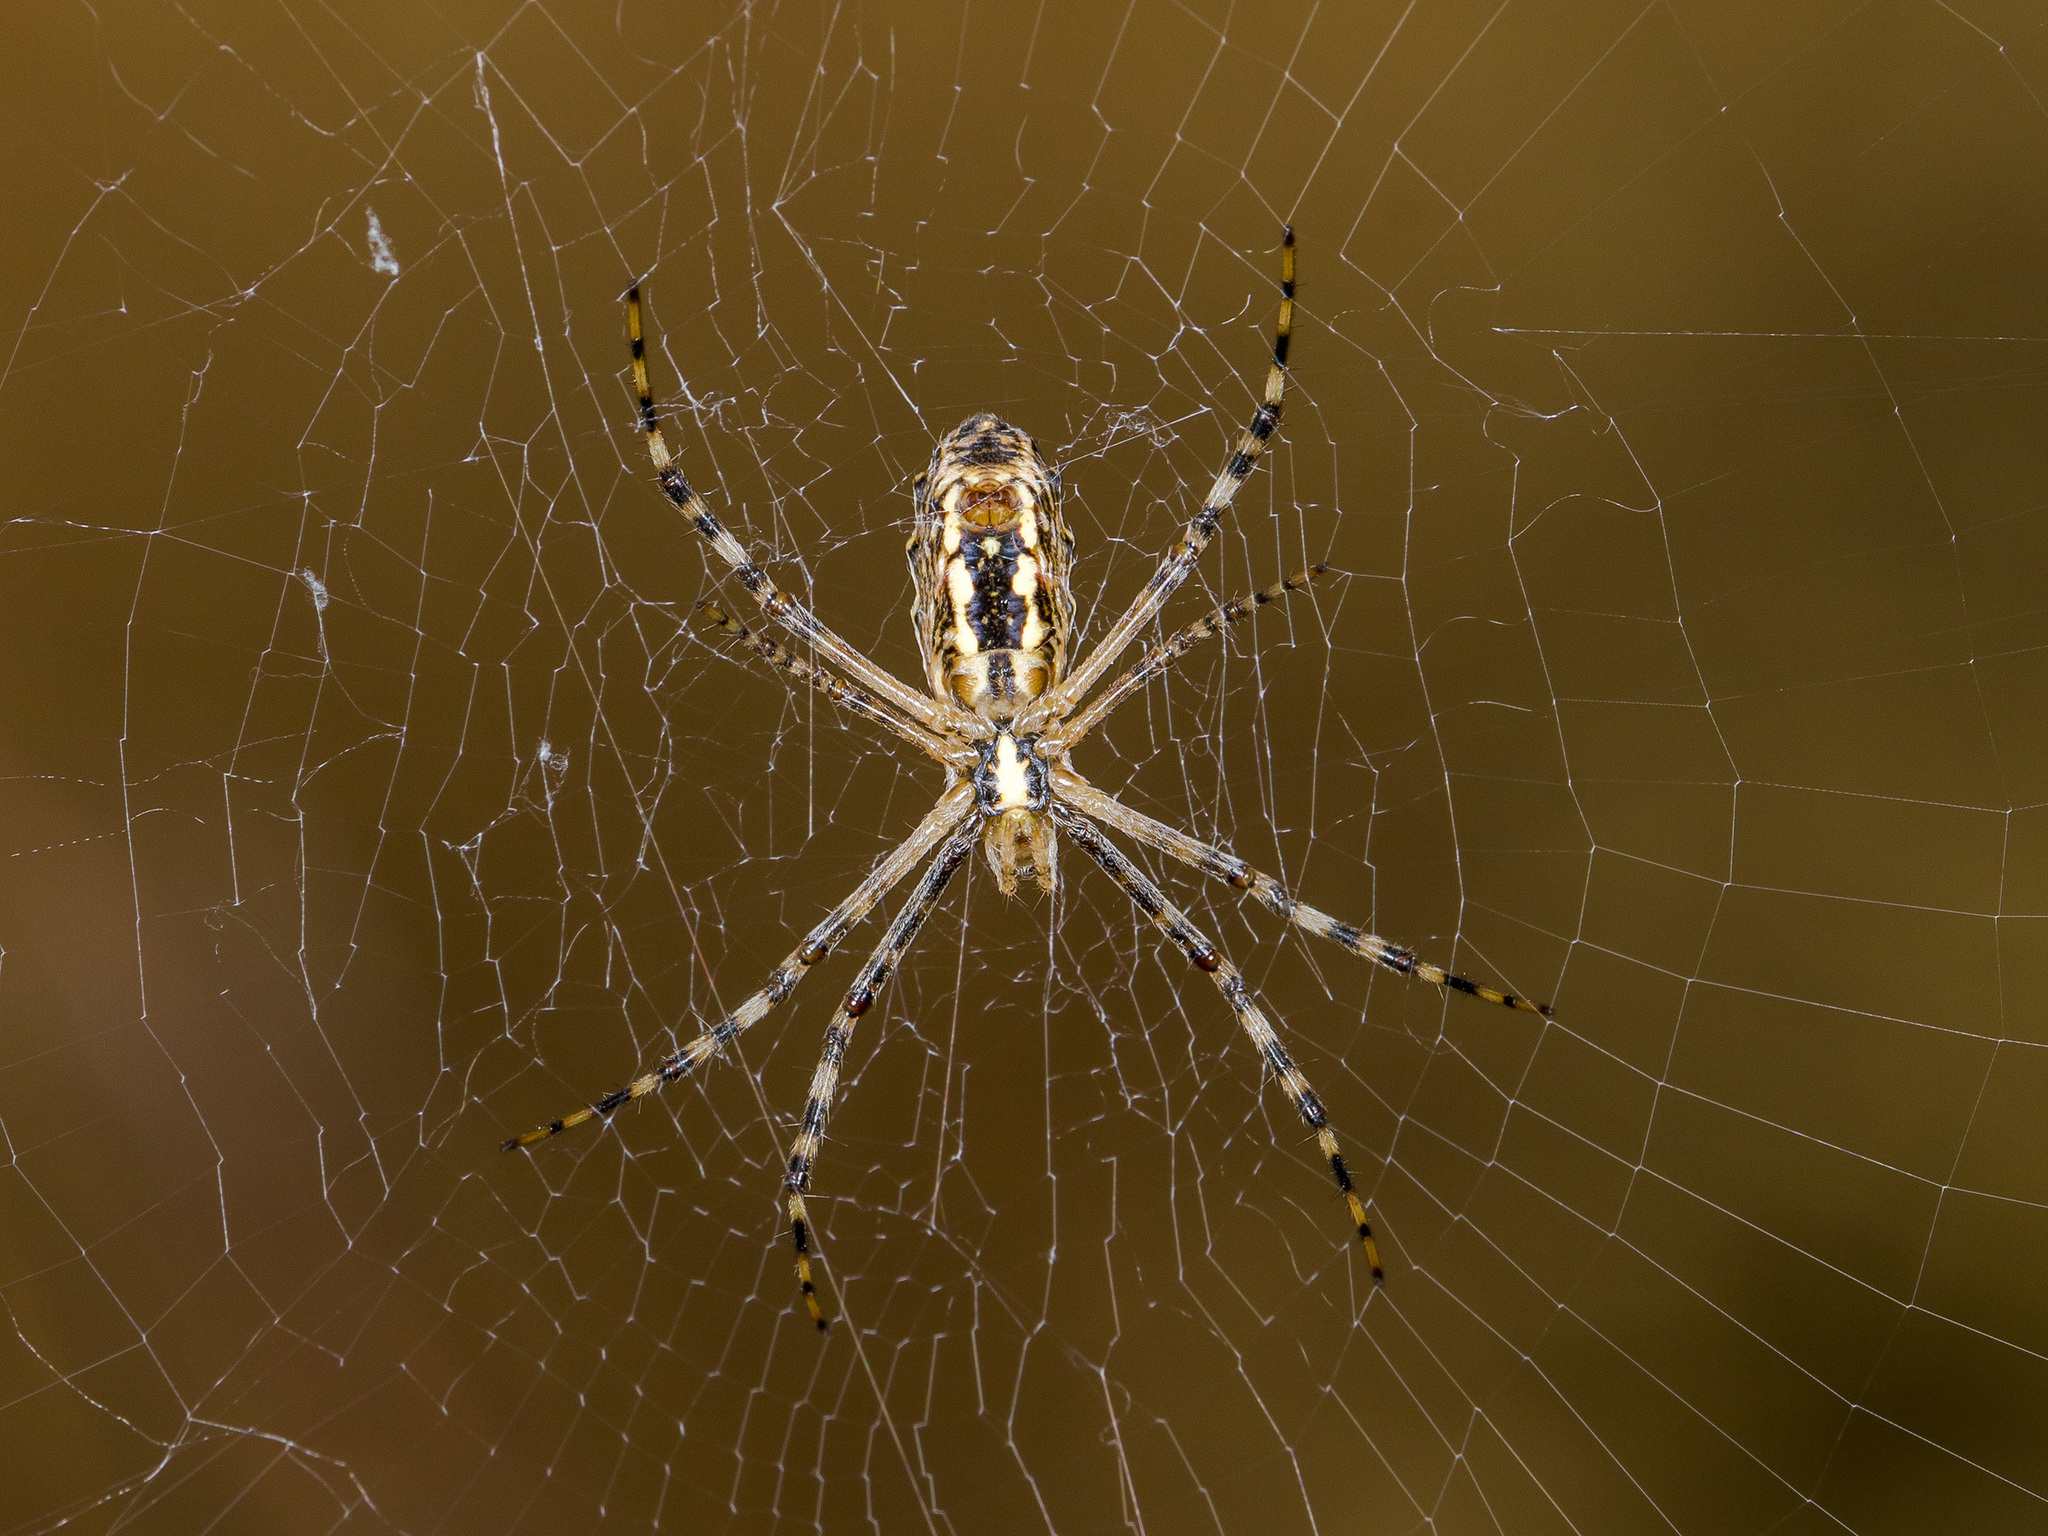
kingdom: Animalia
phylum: Arthropoda
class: Arachnida
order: Araneae
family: Araneidae
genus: Argiope
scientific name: Argiope lobata
